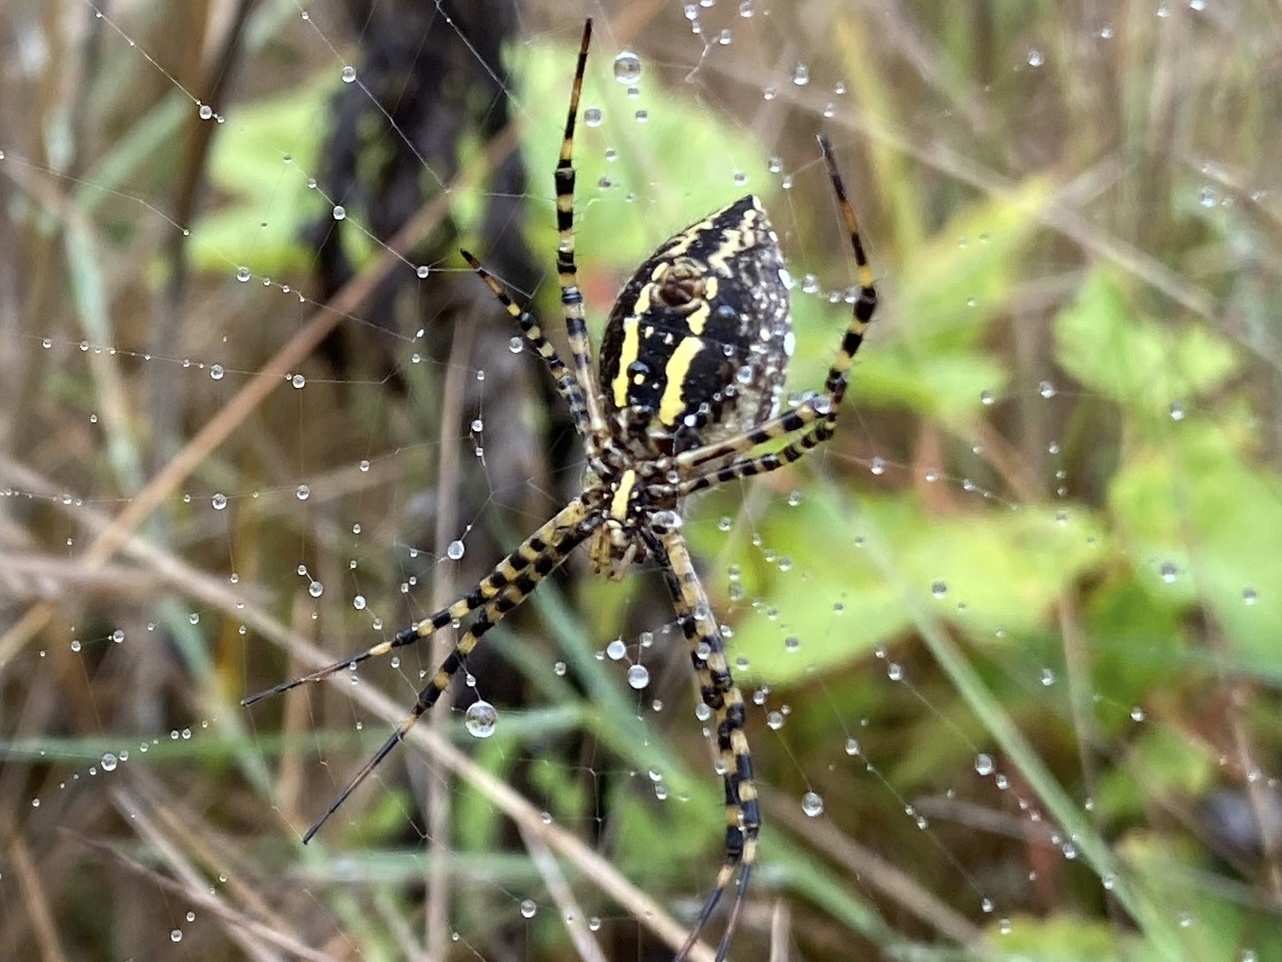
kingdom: Animalia
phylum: Arthropoda
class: Arachnida
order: Araneae
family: Araneidae
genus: Argiope
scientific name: Argiope trifasciata
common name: Banded garden spider
